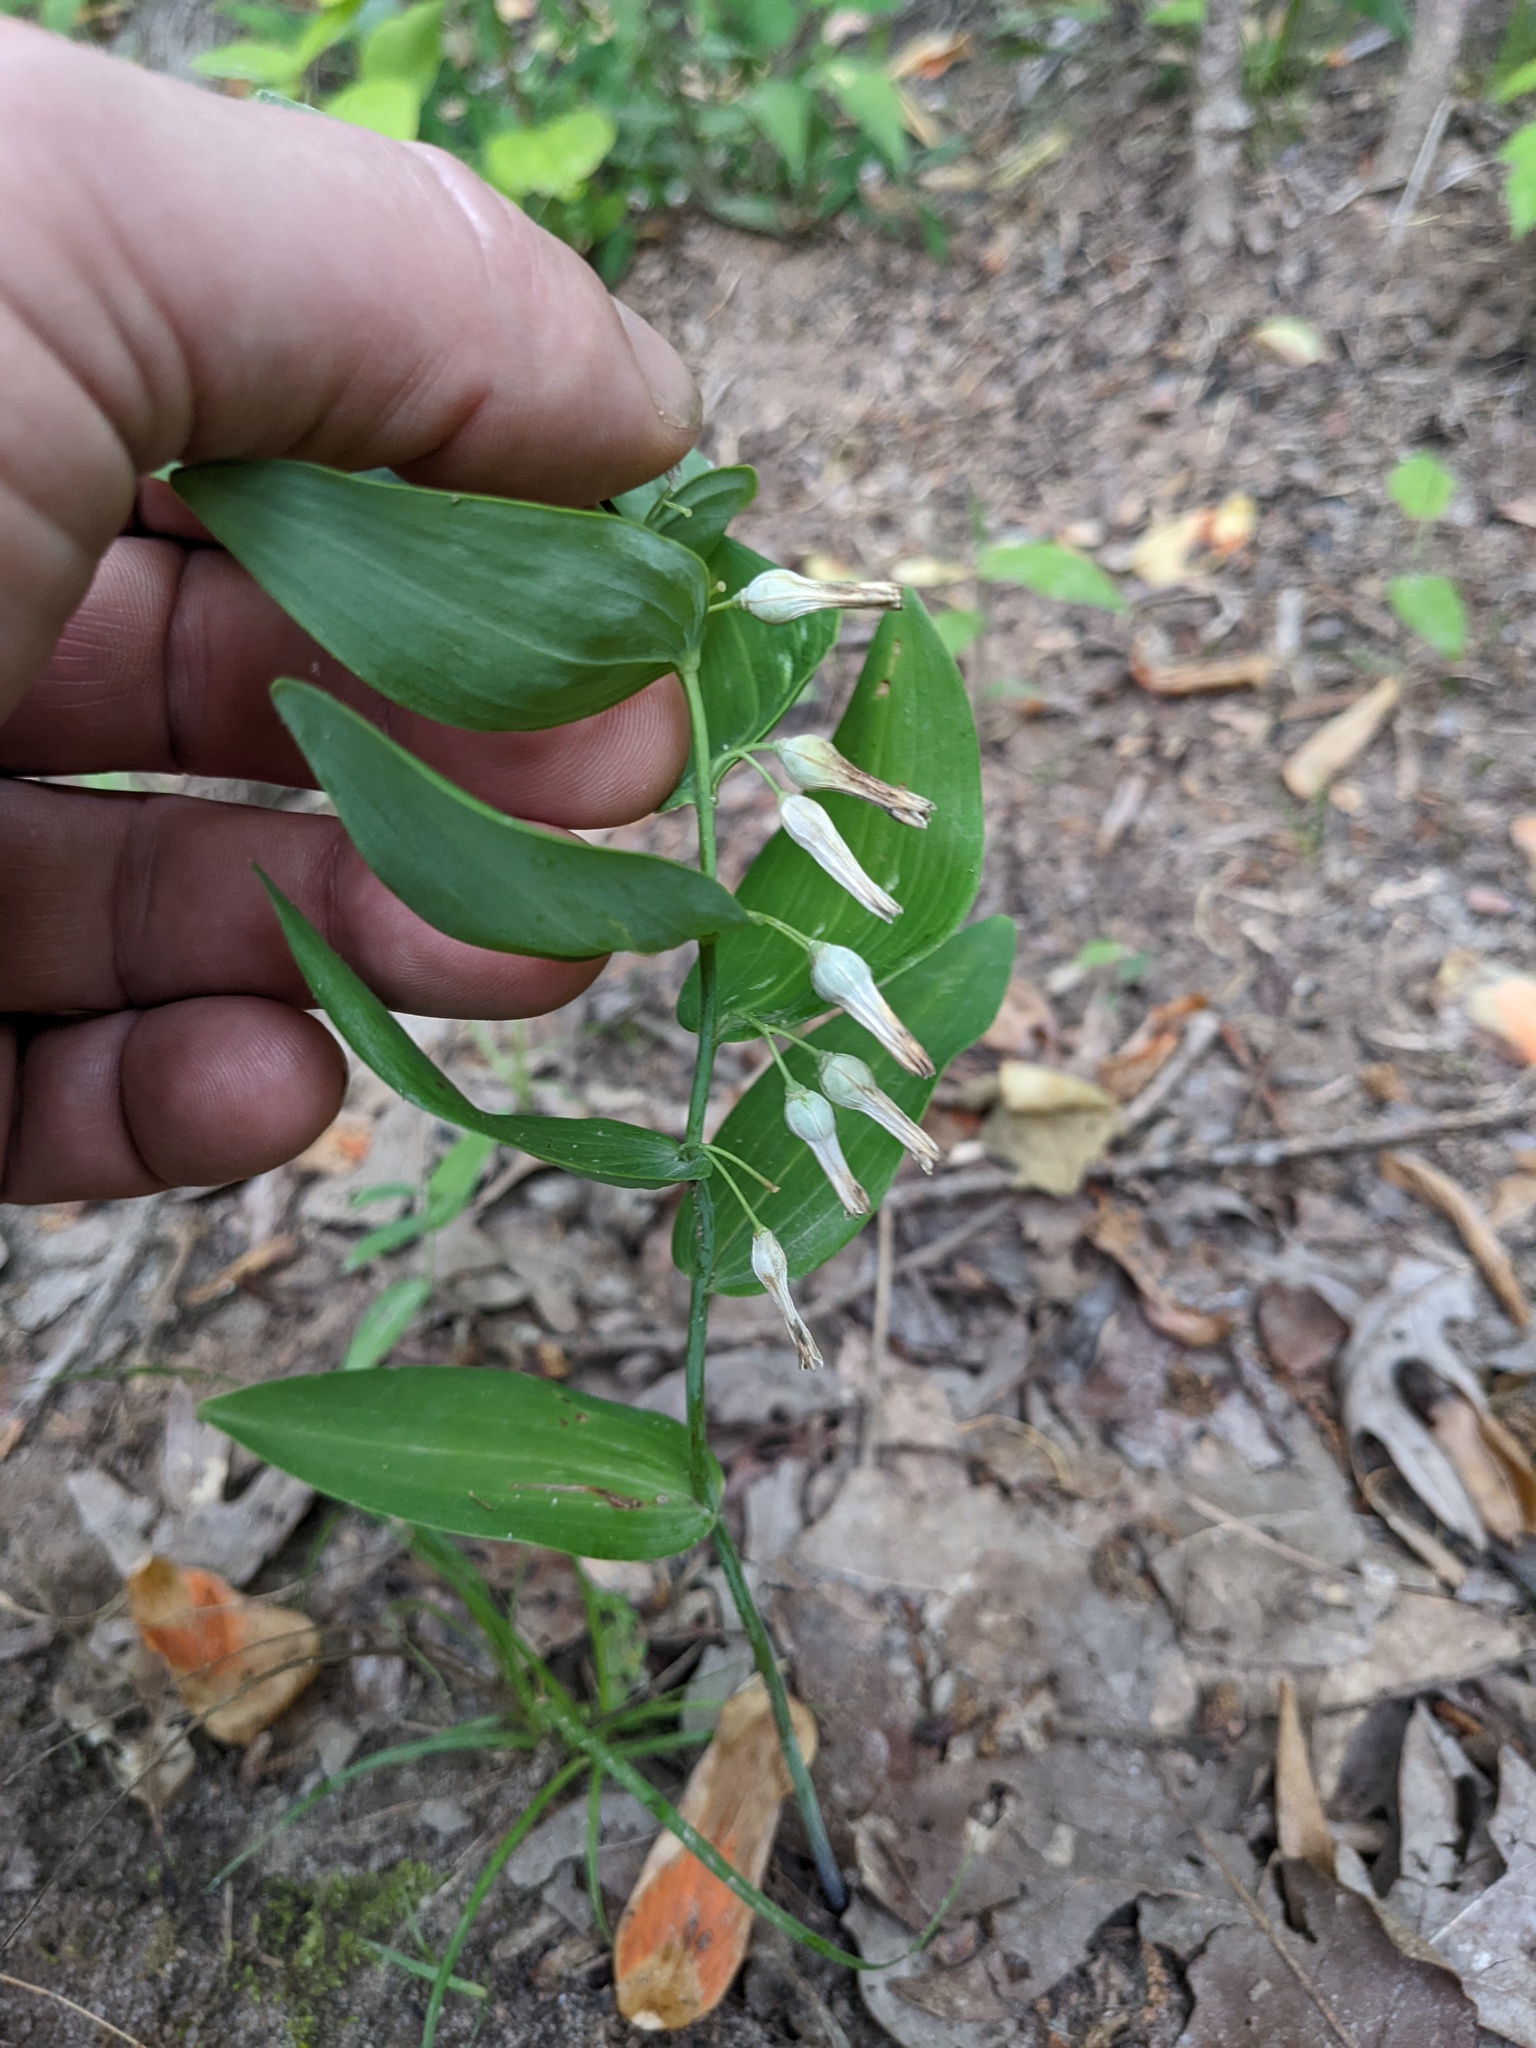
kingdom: Plantae
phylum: Tracheophyta
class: Liliopsida
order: Asparagales
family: Asparagaceae
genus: Polygonatum
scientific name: Polygonatum biflorum
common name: American solomon's-seal
